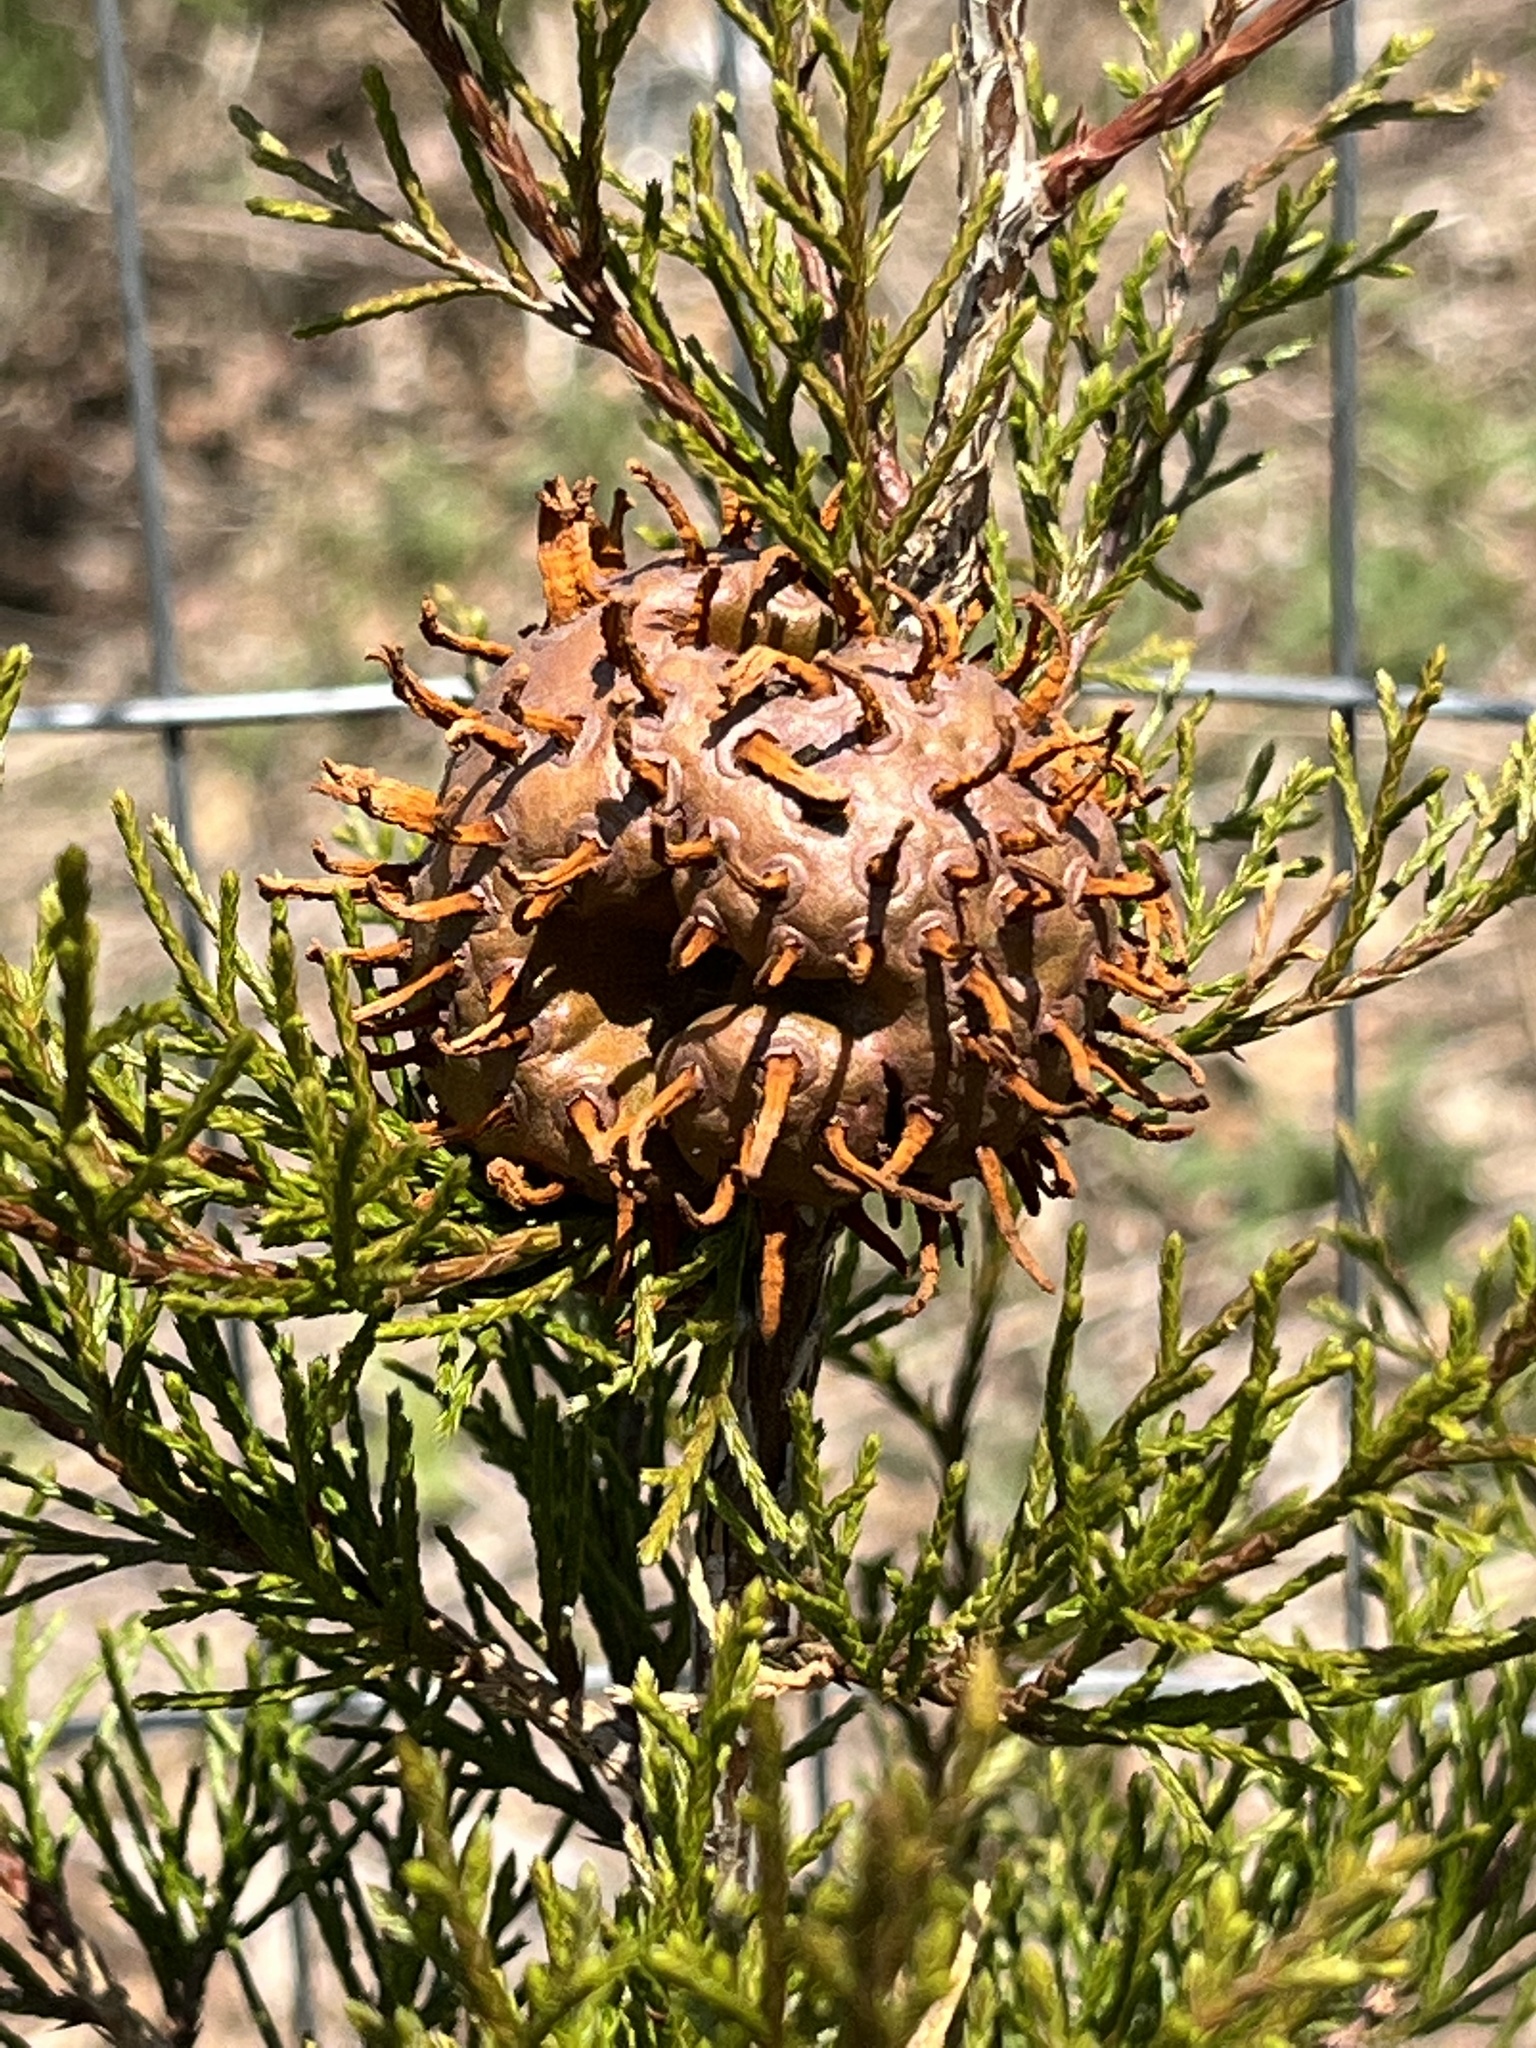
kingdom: Fungi
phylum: Basidiomycota
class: Pucciniomycetes
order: Pucciniales
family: Gymnosporangiaceae
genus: Gymnosporangium
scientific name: Gymnosporangium juniperi-virginianae
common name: Juniper-apple rust
